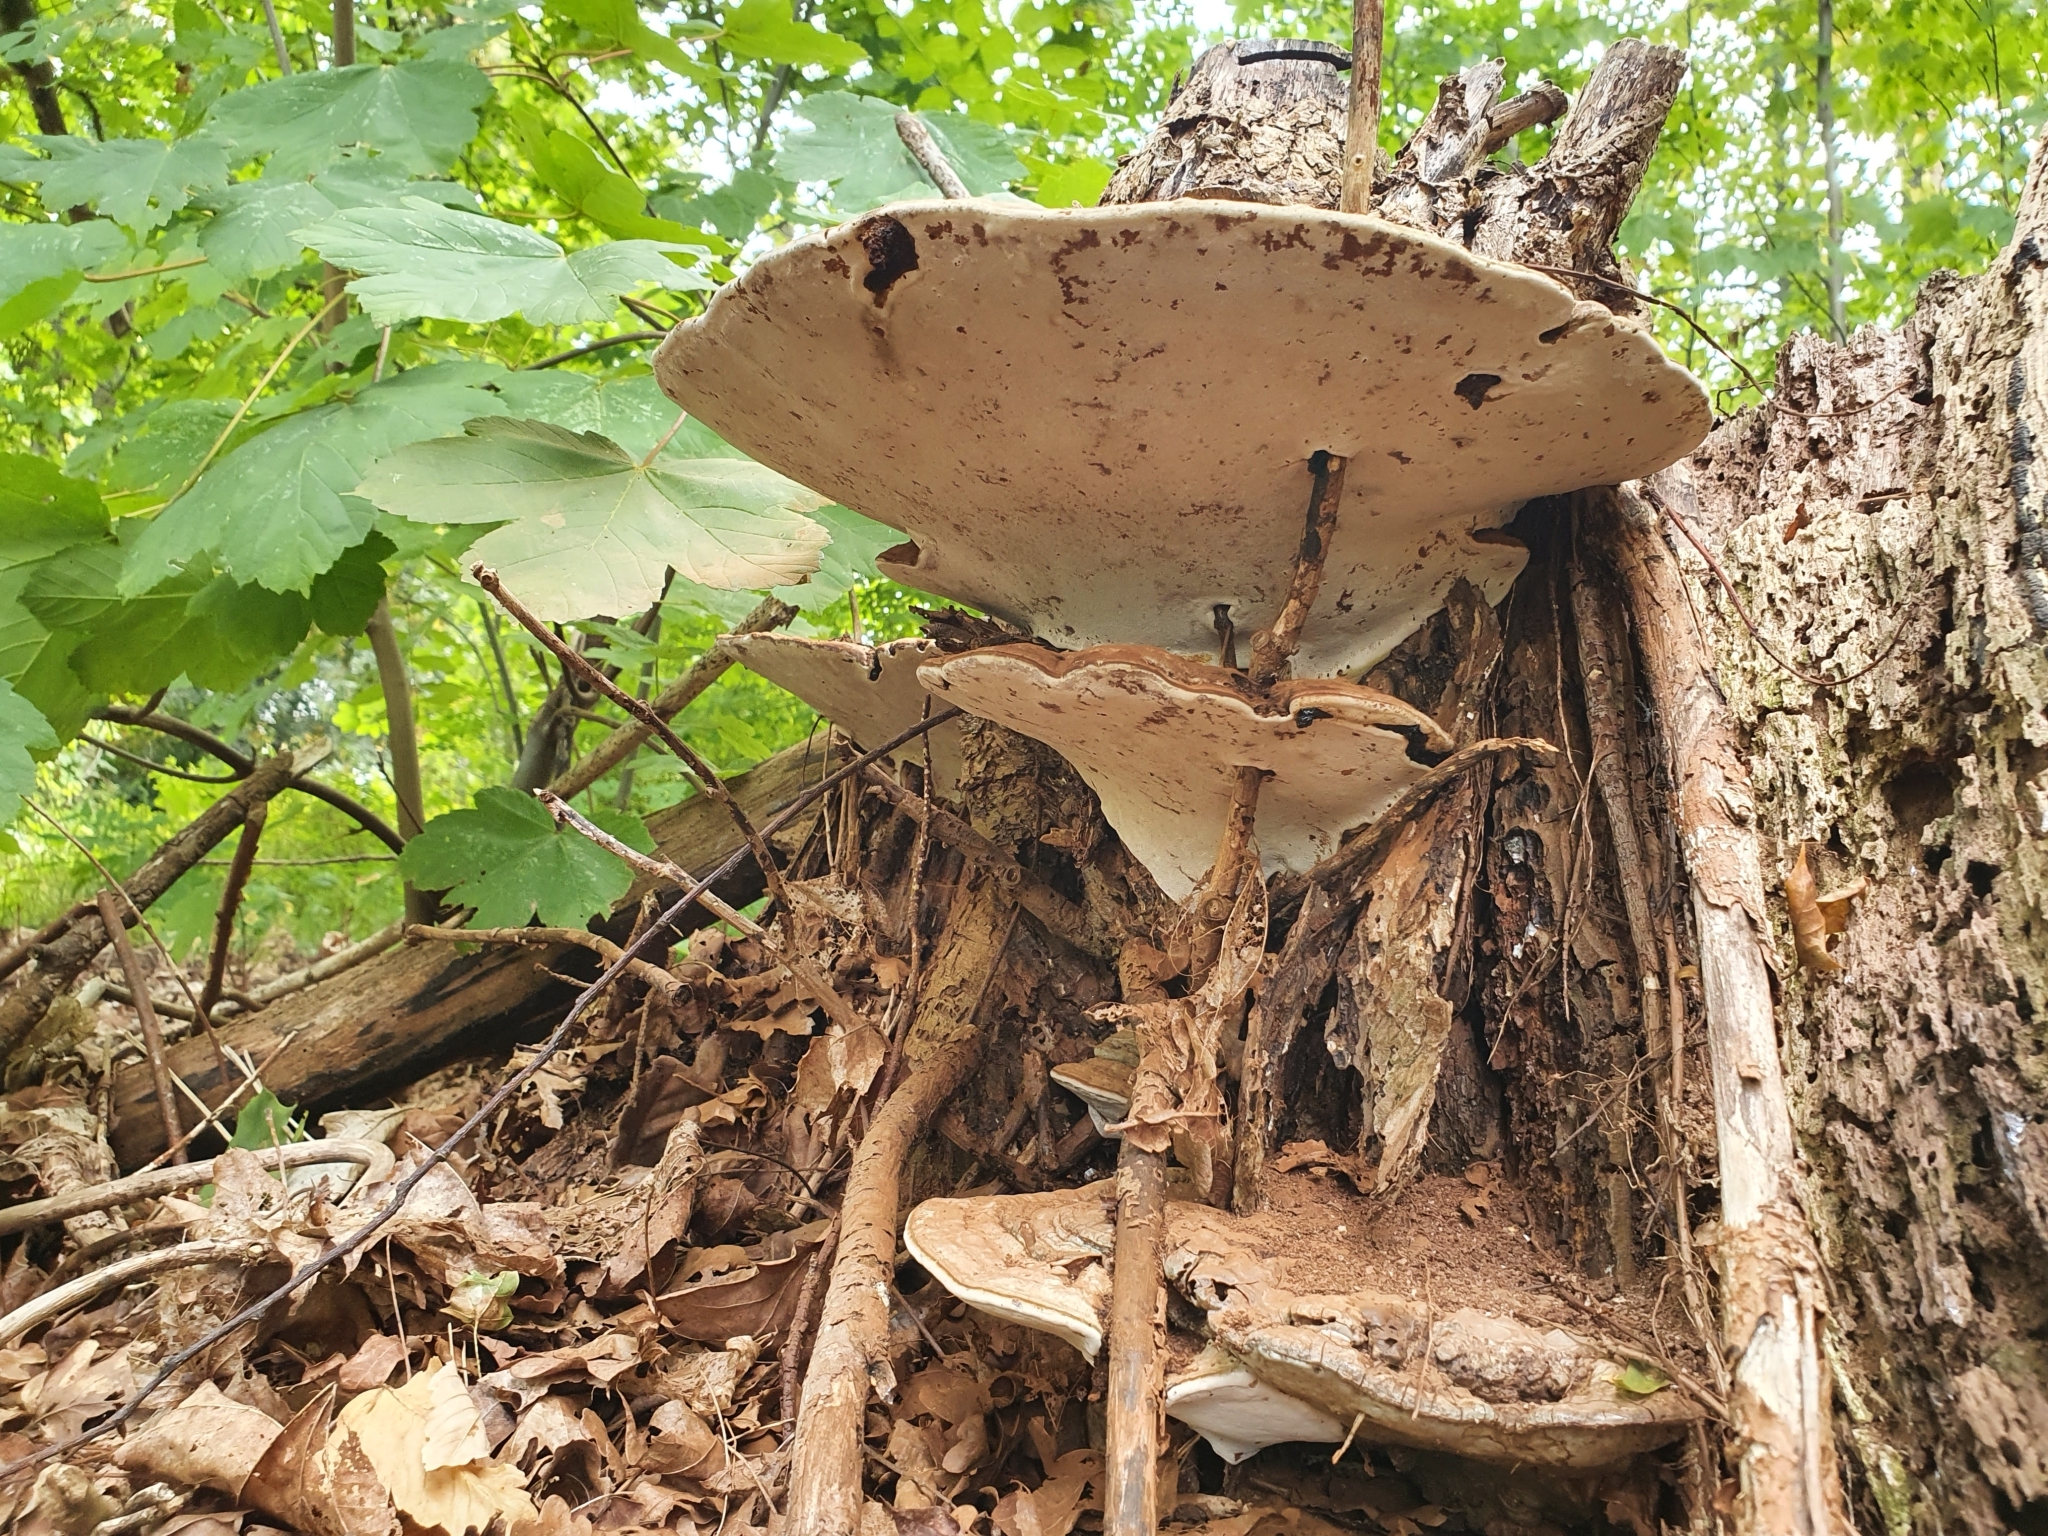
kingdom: Fungi
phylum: Basidiomycota
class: Agaricomycetes
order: Polyporales
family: Polyporaceae
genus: Ganoderma
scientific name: Ganoderma applanatum
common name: Artist's bracket
